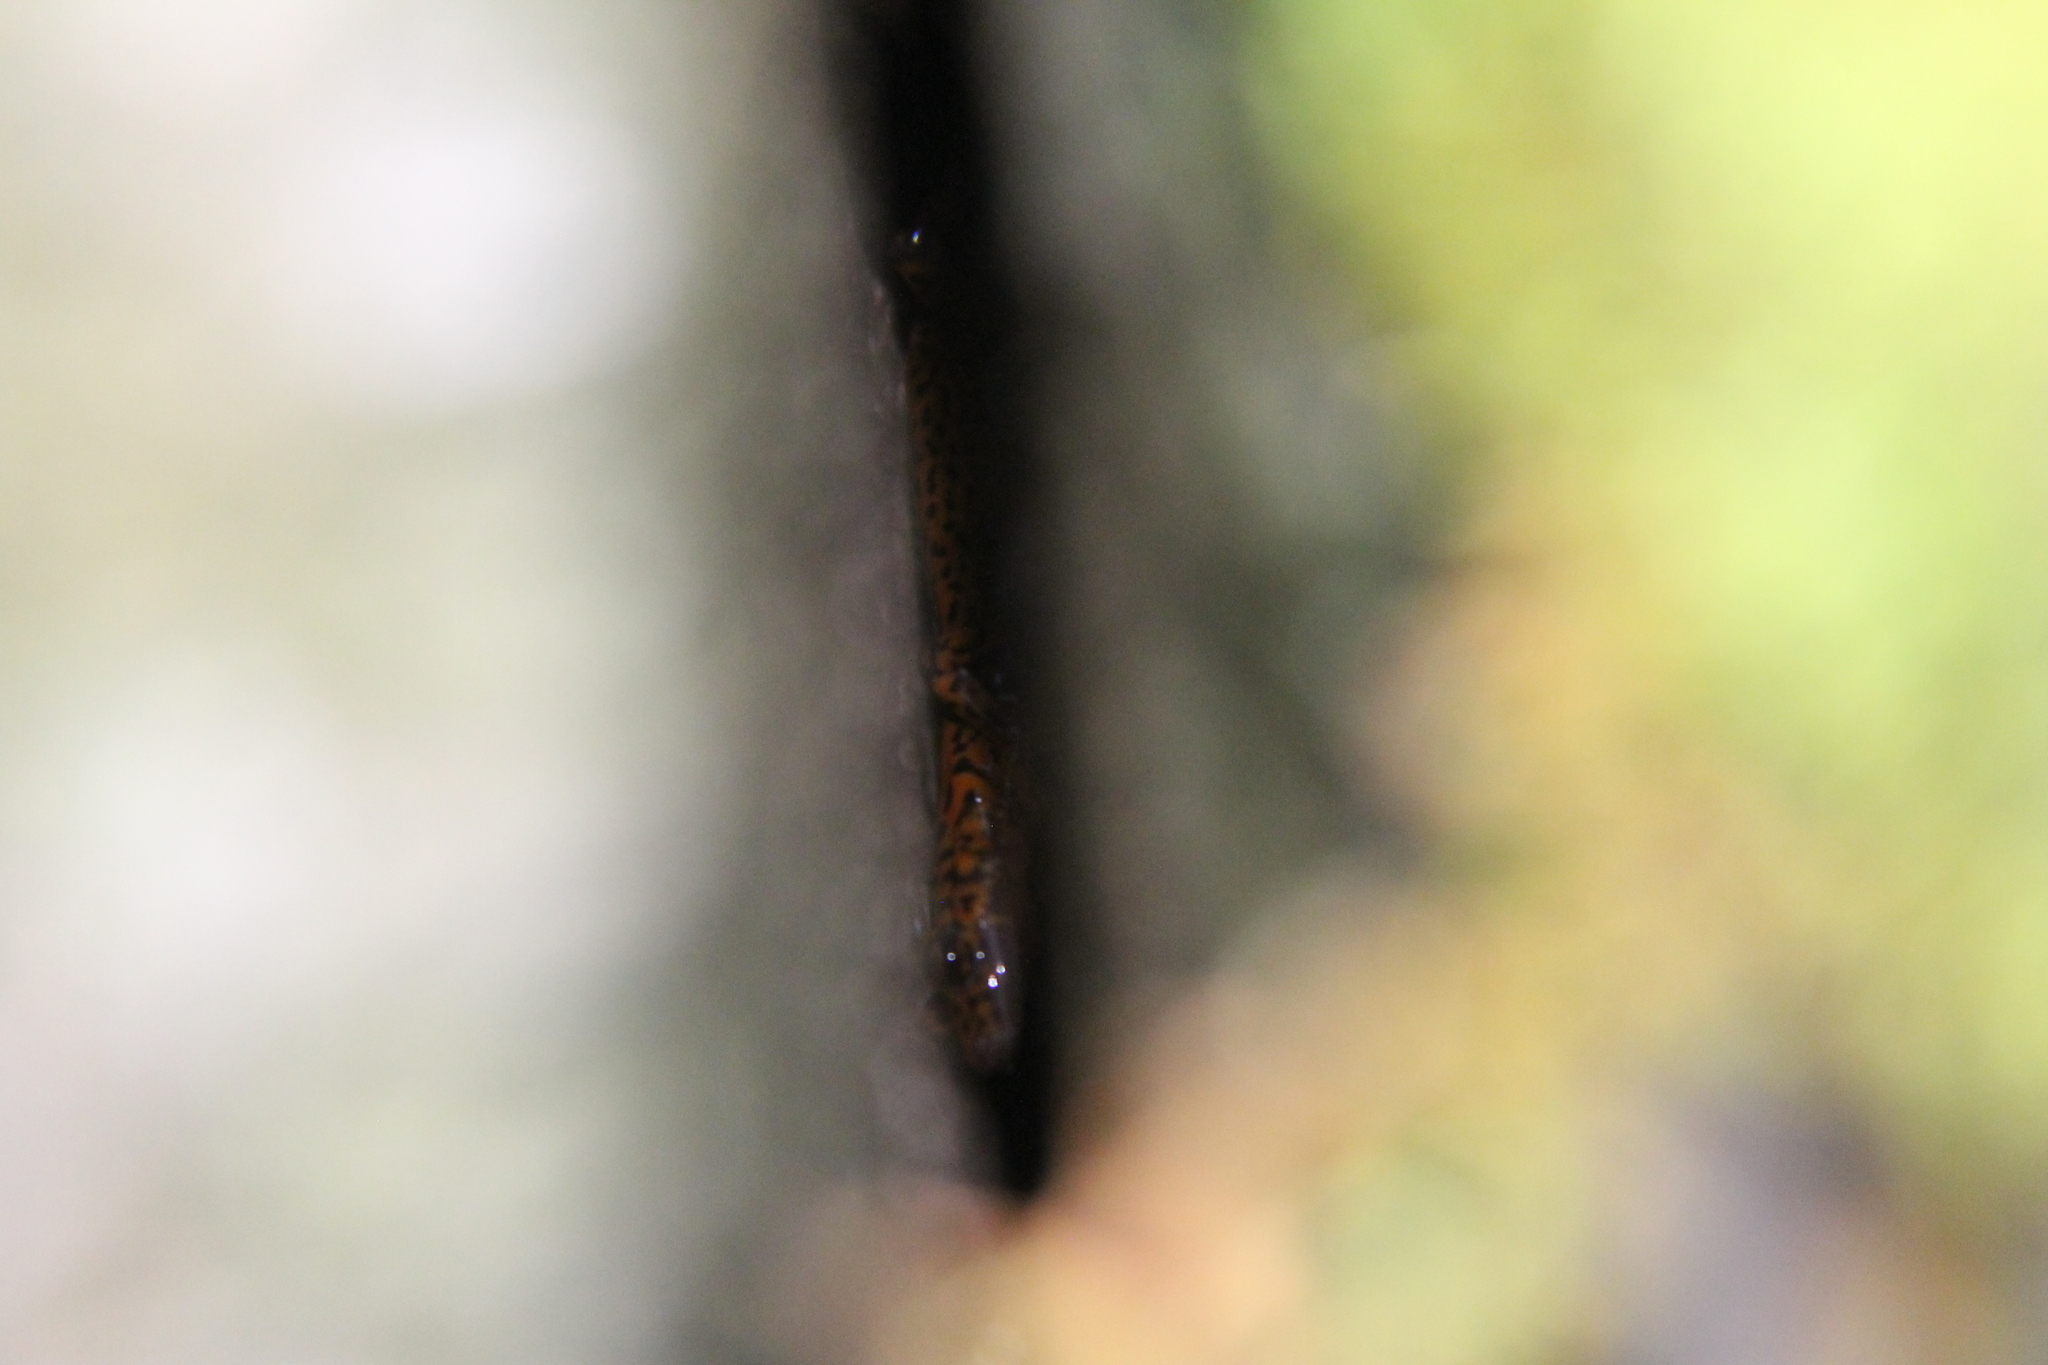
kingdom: Animalia
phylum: Chordata
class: Amphibia
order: Caudata
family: Plethodontidae
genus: Eurycea
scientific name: Eurycea lucifuga
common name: Cave salamander
